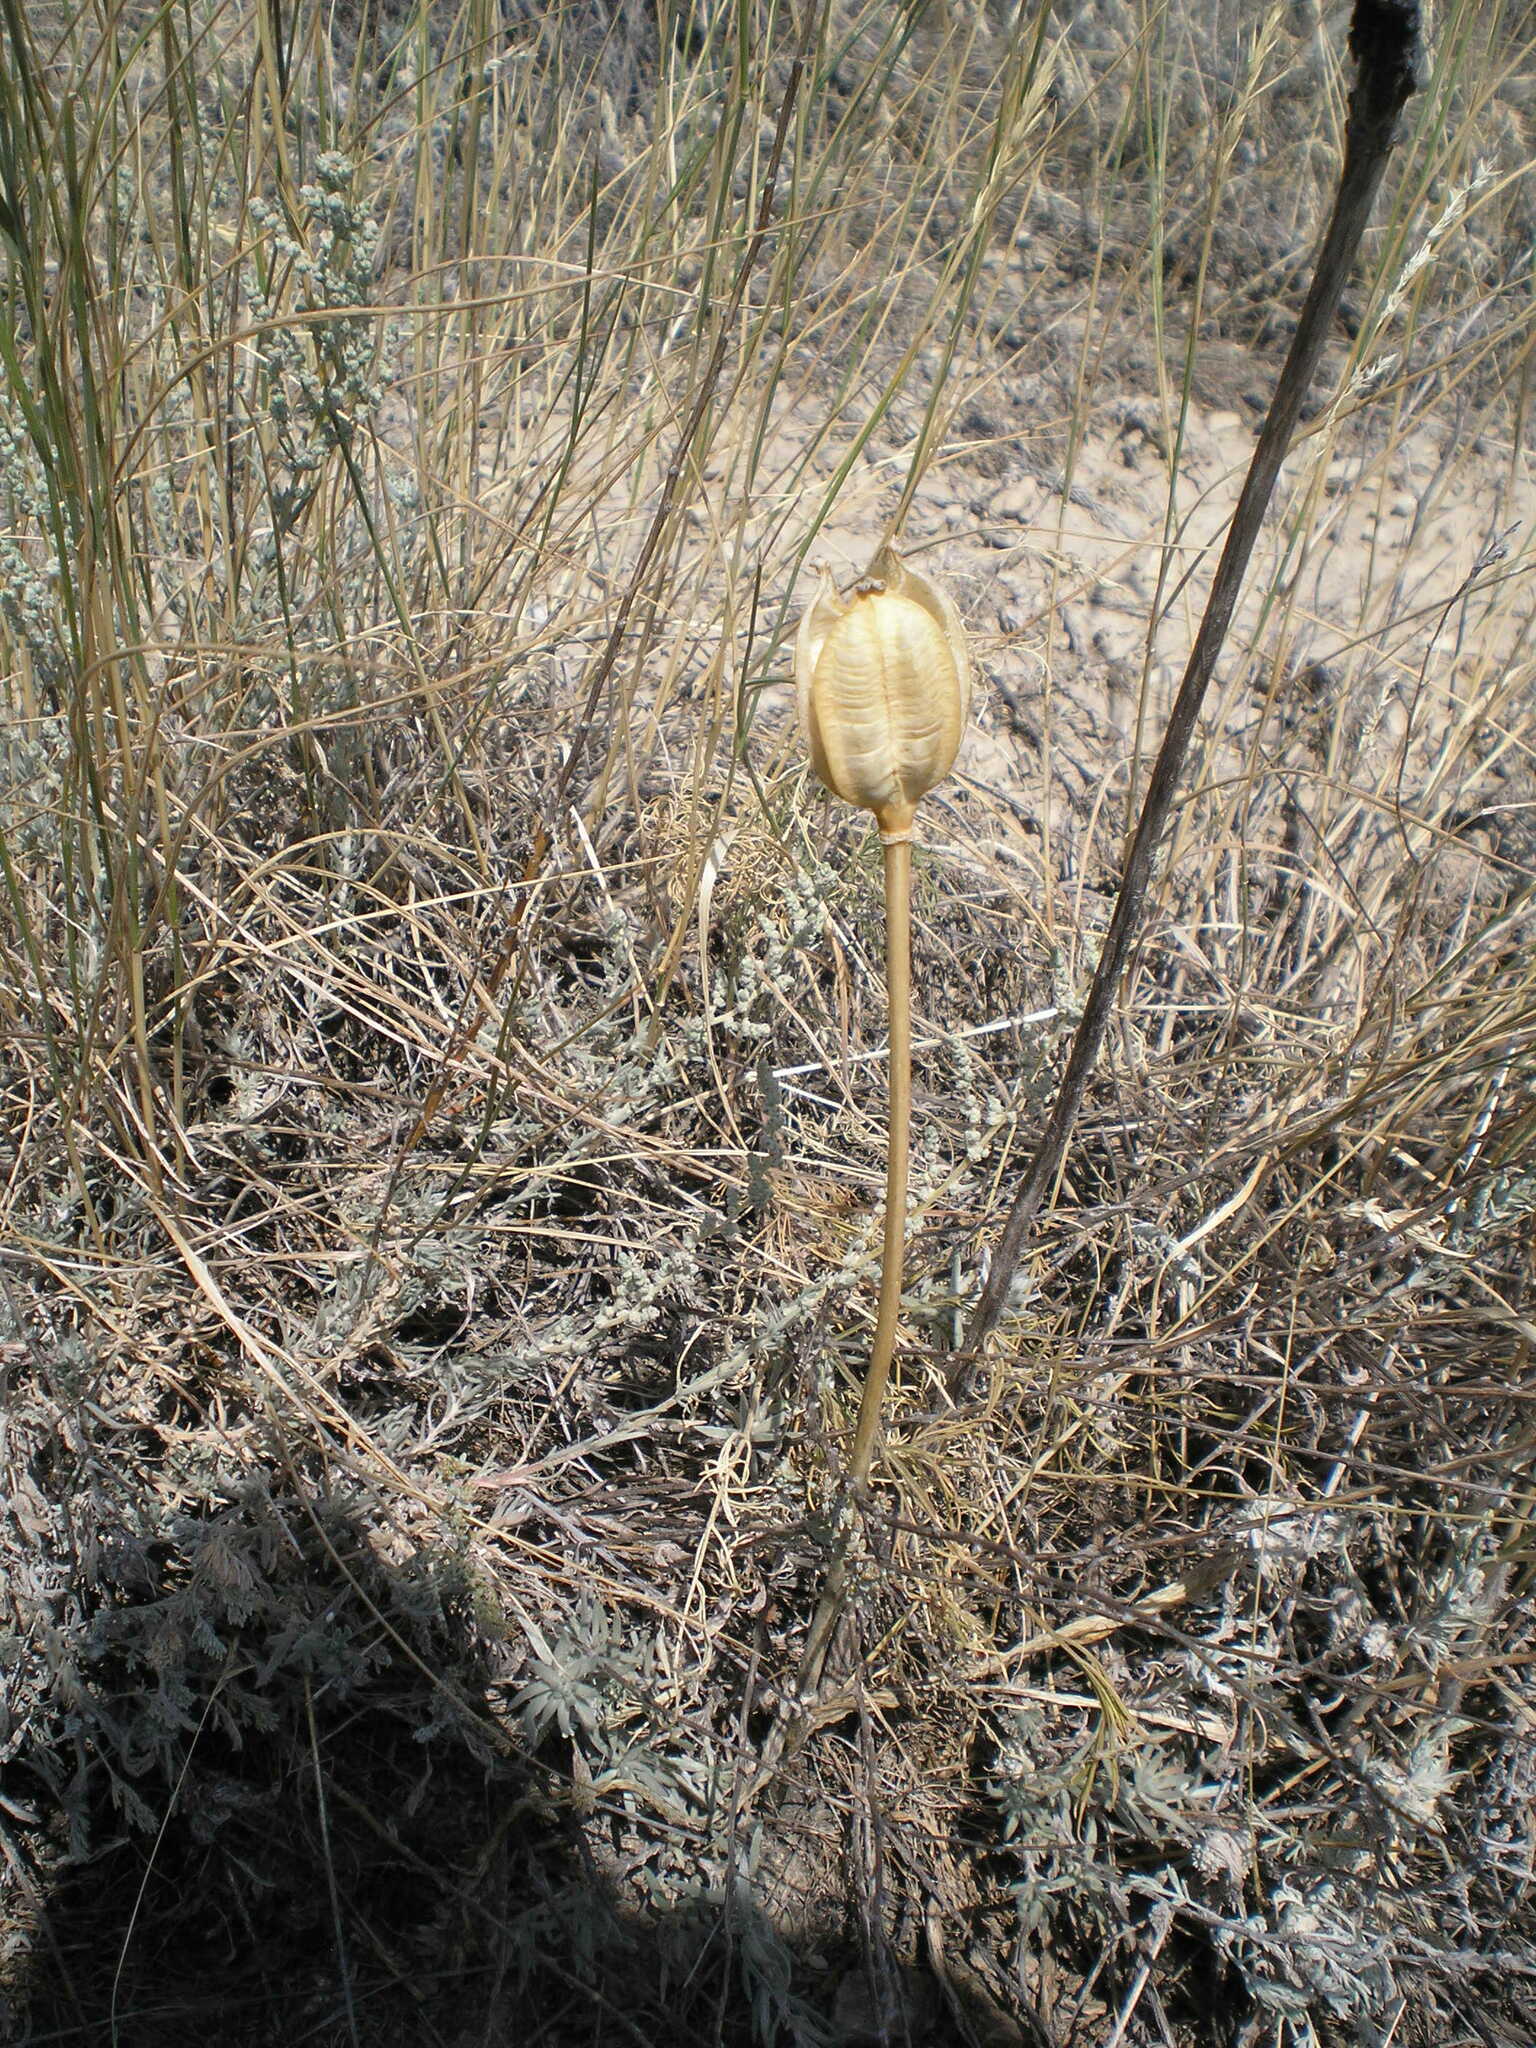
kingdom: Plantae
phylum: Tracheophyta
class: Liliopsida
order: Liliales
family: Liliaceae
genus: Tulipa
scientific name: Tulipa biflora
